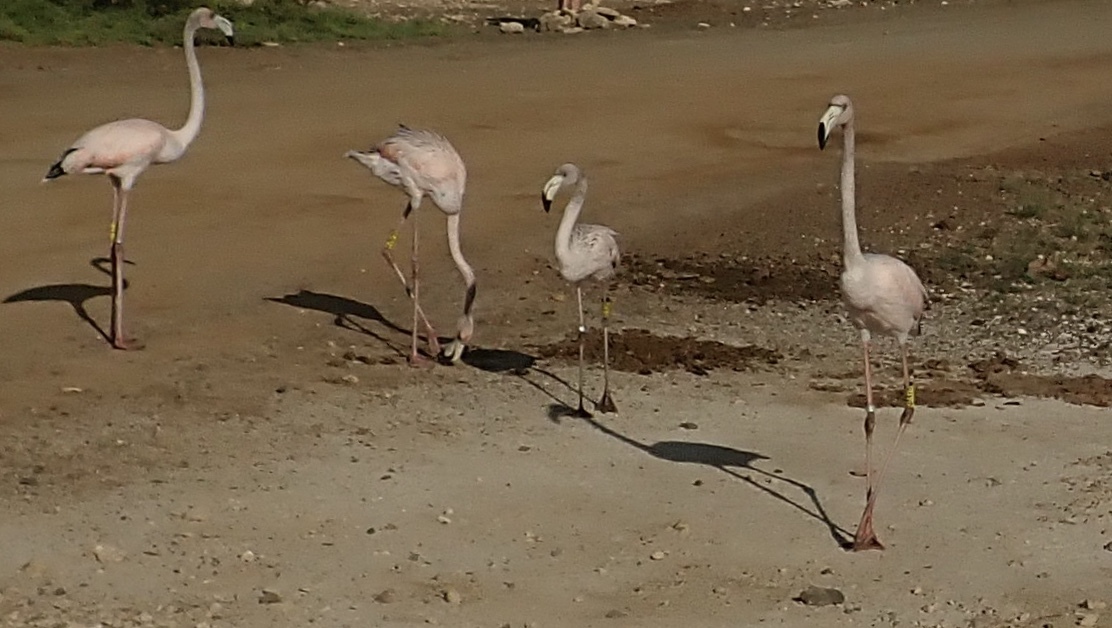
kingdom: Animalia
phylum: Chordata
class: Aves
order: Phoenicopteriformes
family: Phoenicopteridae
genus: Phoenicopterus
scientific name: Phoenicopterus ruber
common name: American flamingo
